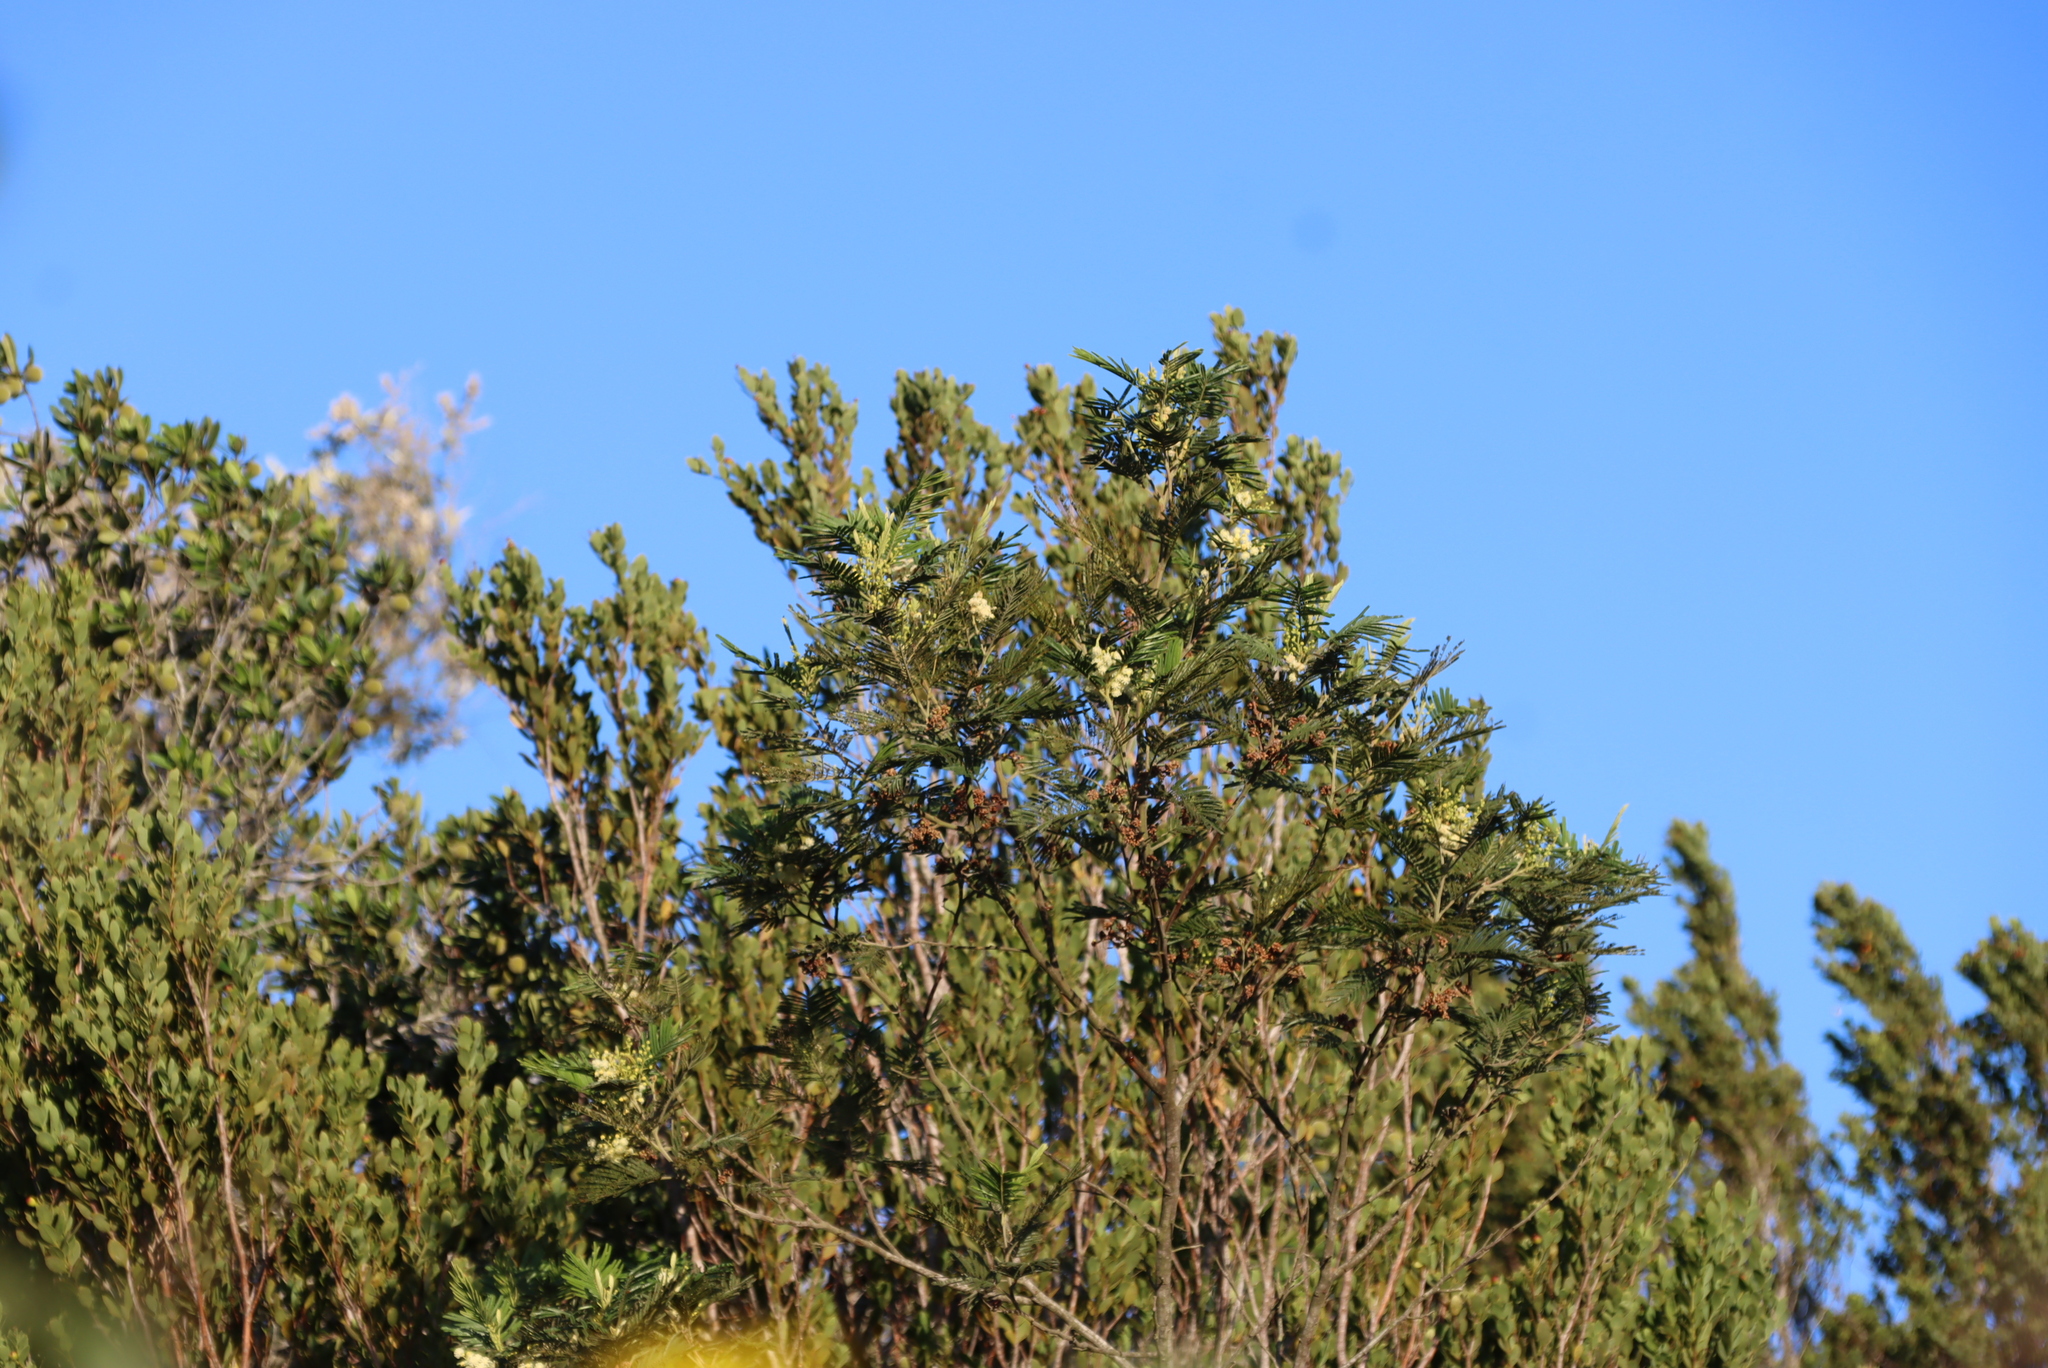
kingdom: Plantae
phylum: Tracheophyta
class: Magnoliopsida
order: Fabales
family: Fabaceae
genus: Acacia
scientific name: Acacia mearnsii
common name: Black wattle
